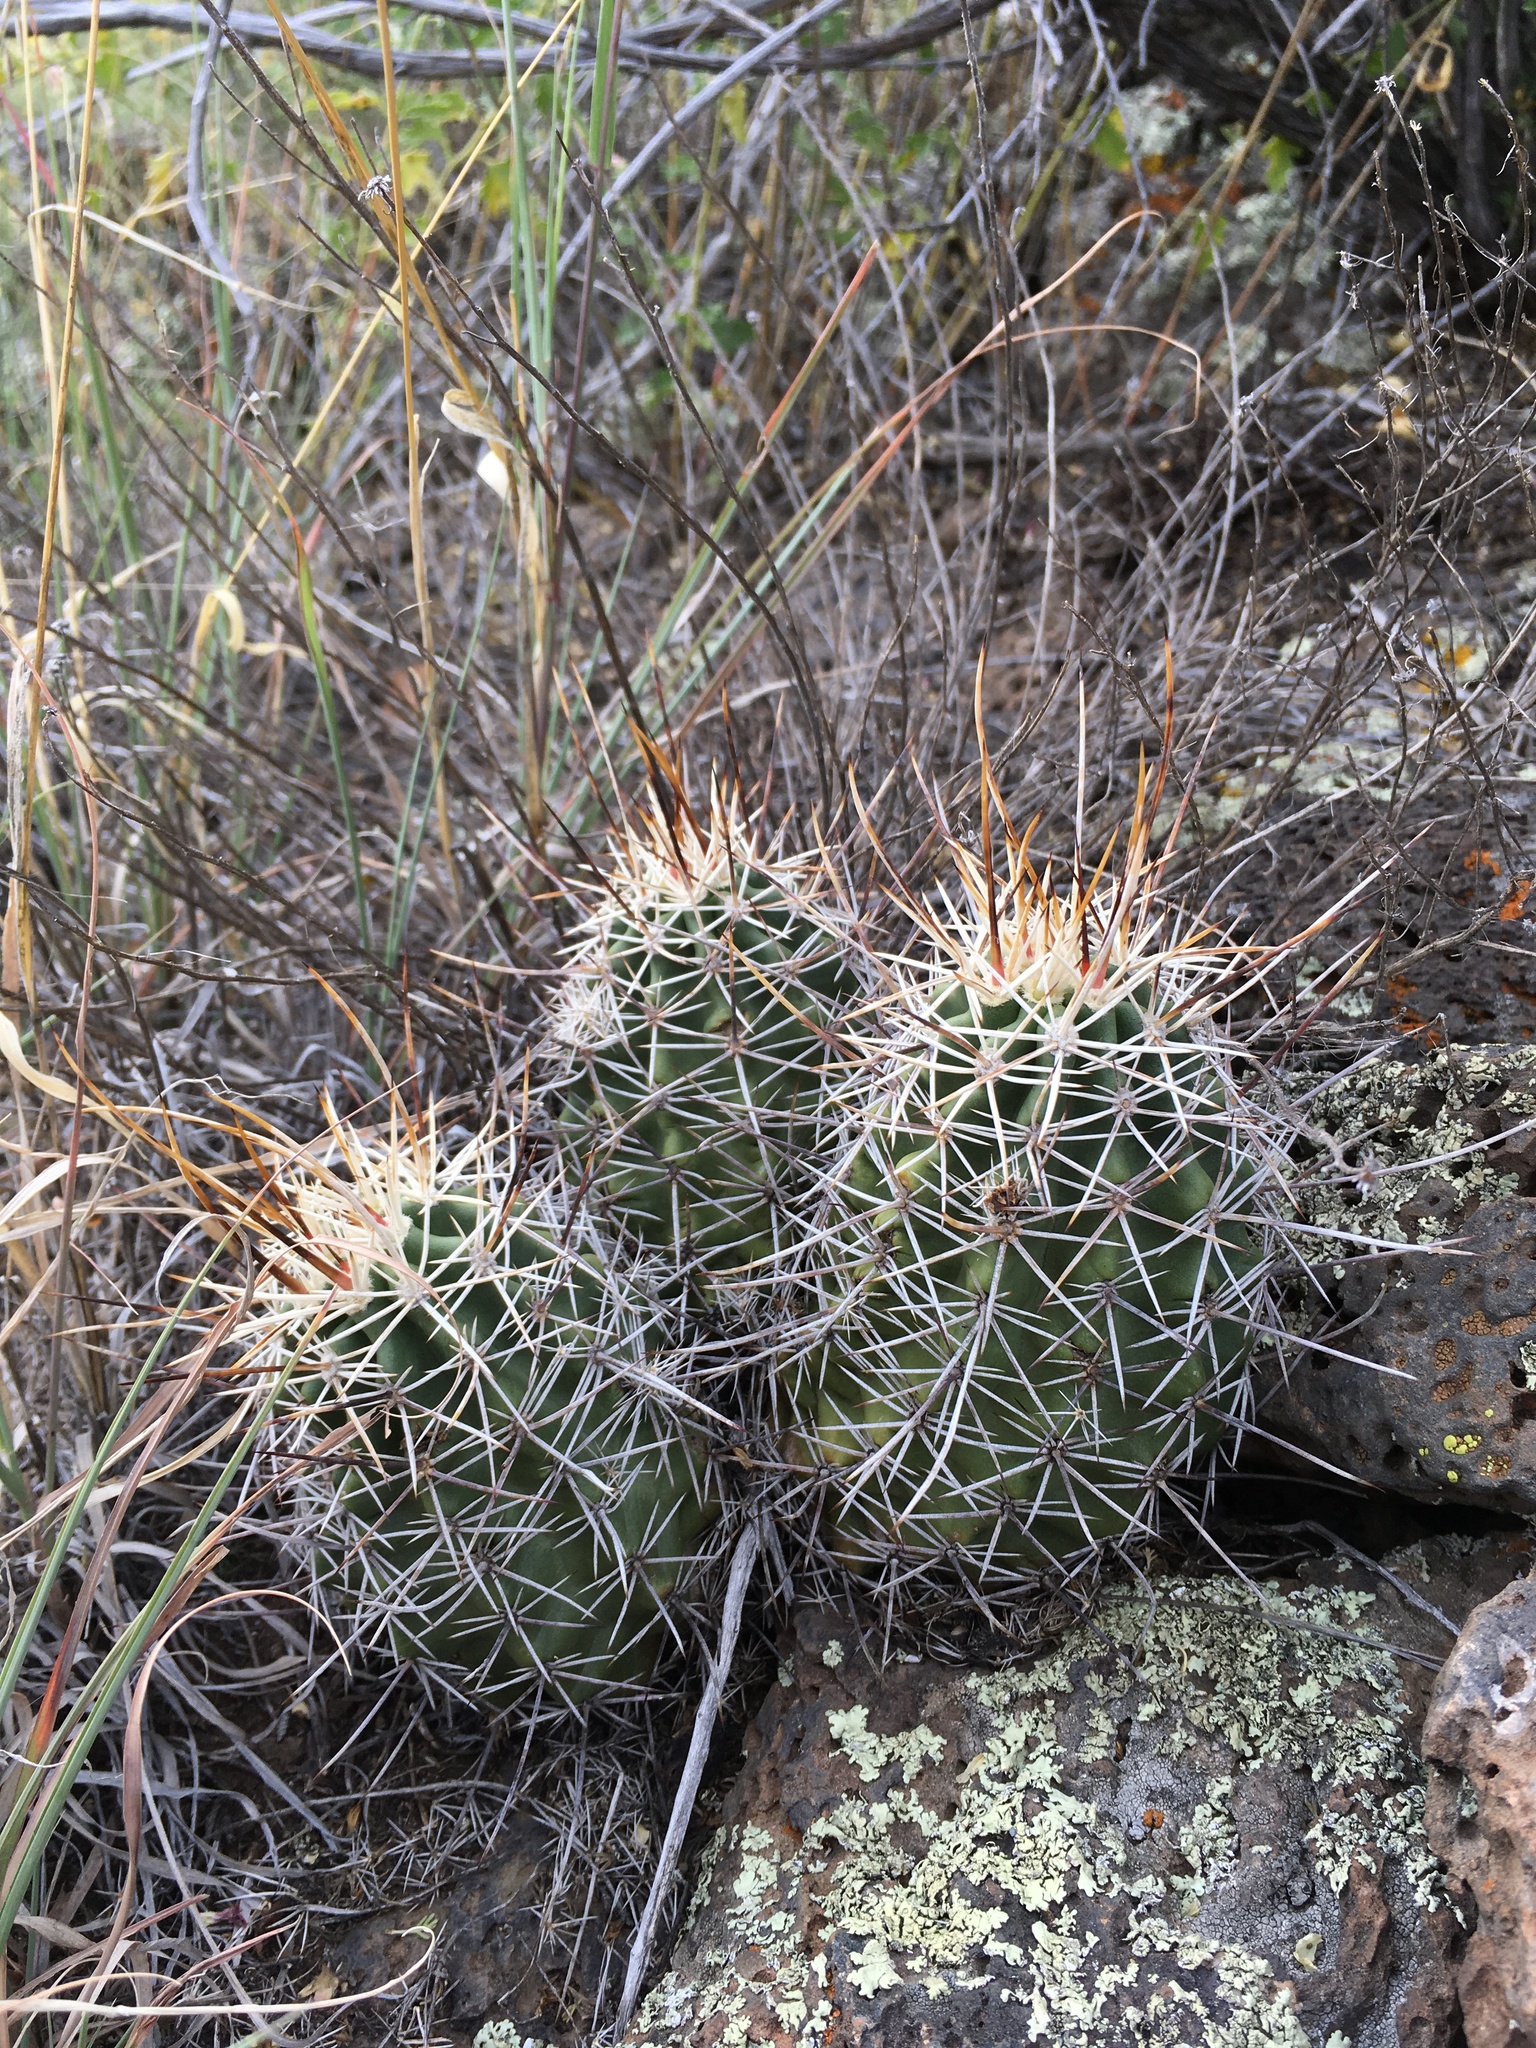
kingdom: Plantae
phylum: Tracheophyta
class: Magnoliopsida
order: Caryophyllales
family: Cactaceae
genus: Echinocereus
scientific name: Echinocereus fendleri
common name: Fendler's hedgehog cactus
